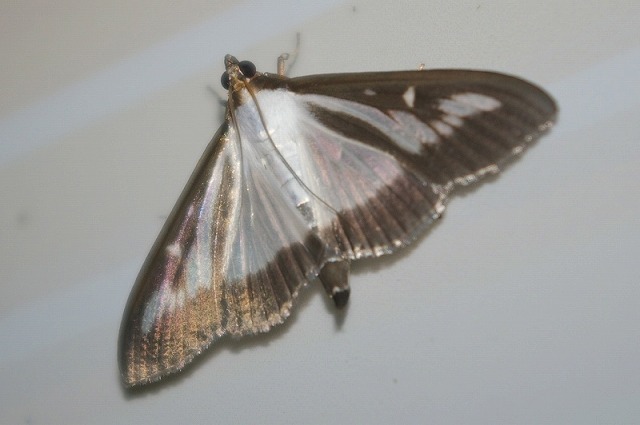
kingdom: Animalia
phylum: Arthropoda
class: Insecta
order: Lepidoptera
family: Crambidae
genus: Cydalima
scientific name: Cydalima perspectalis
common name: Box tree moth
